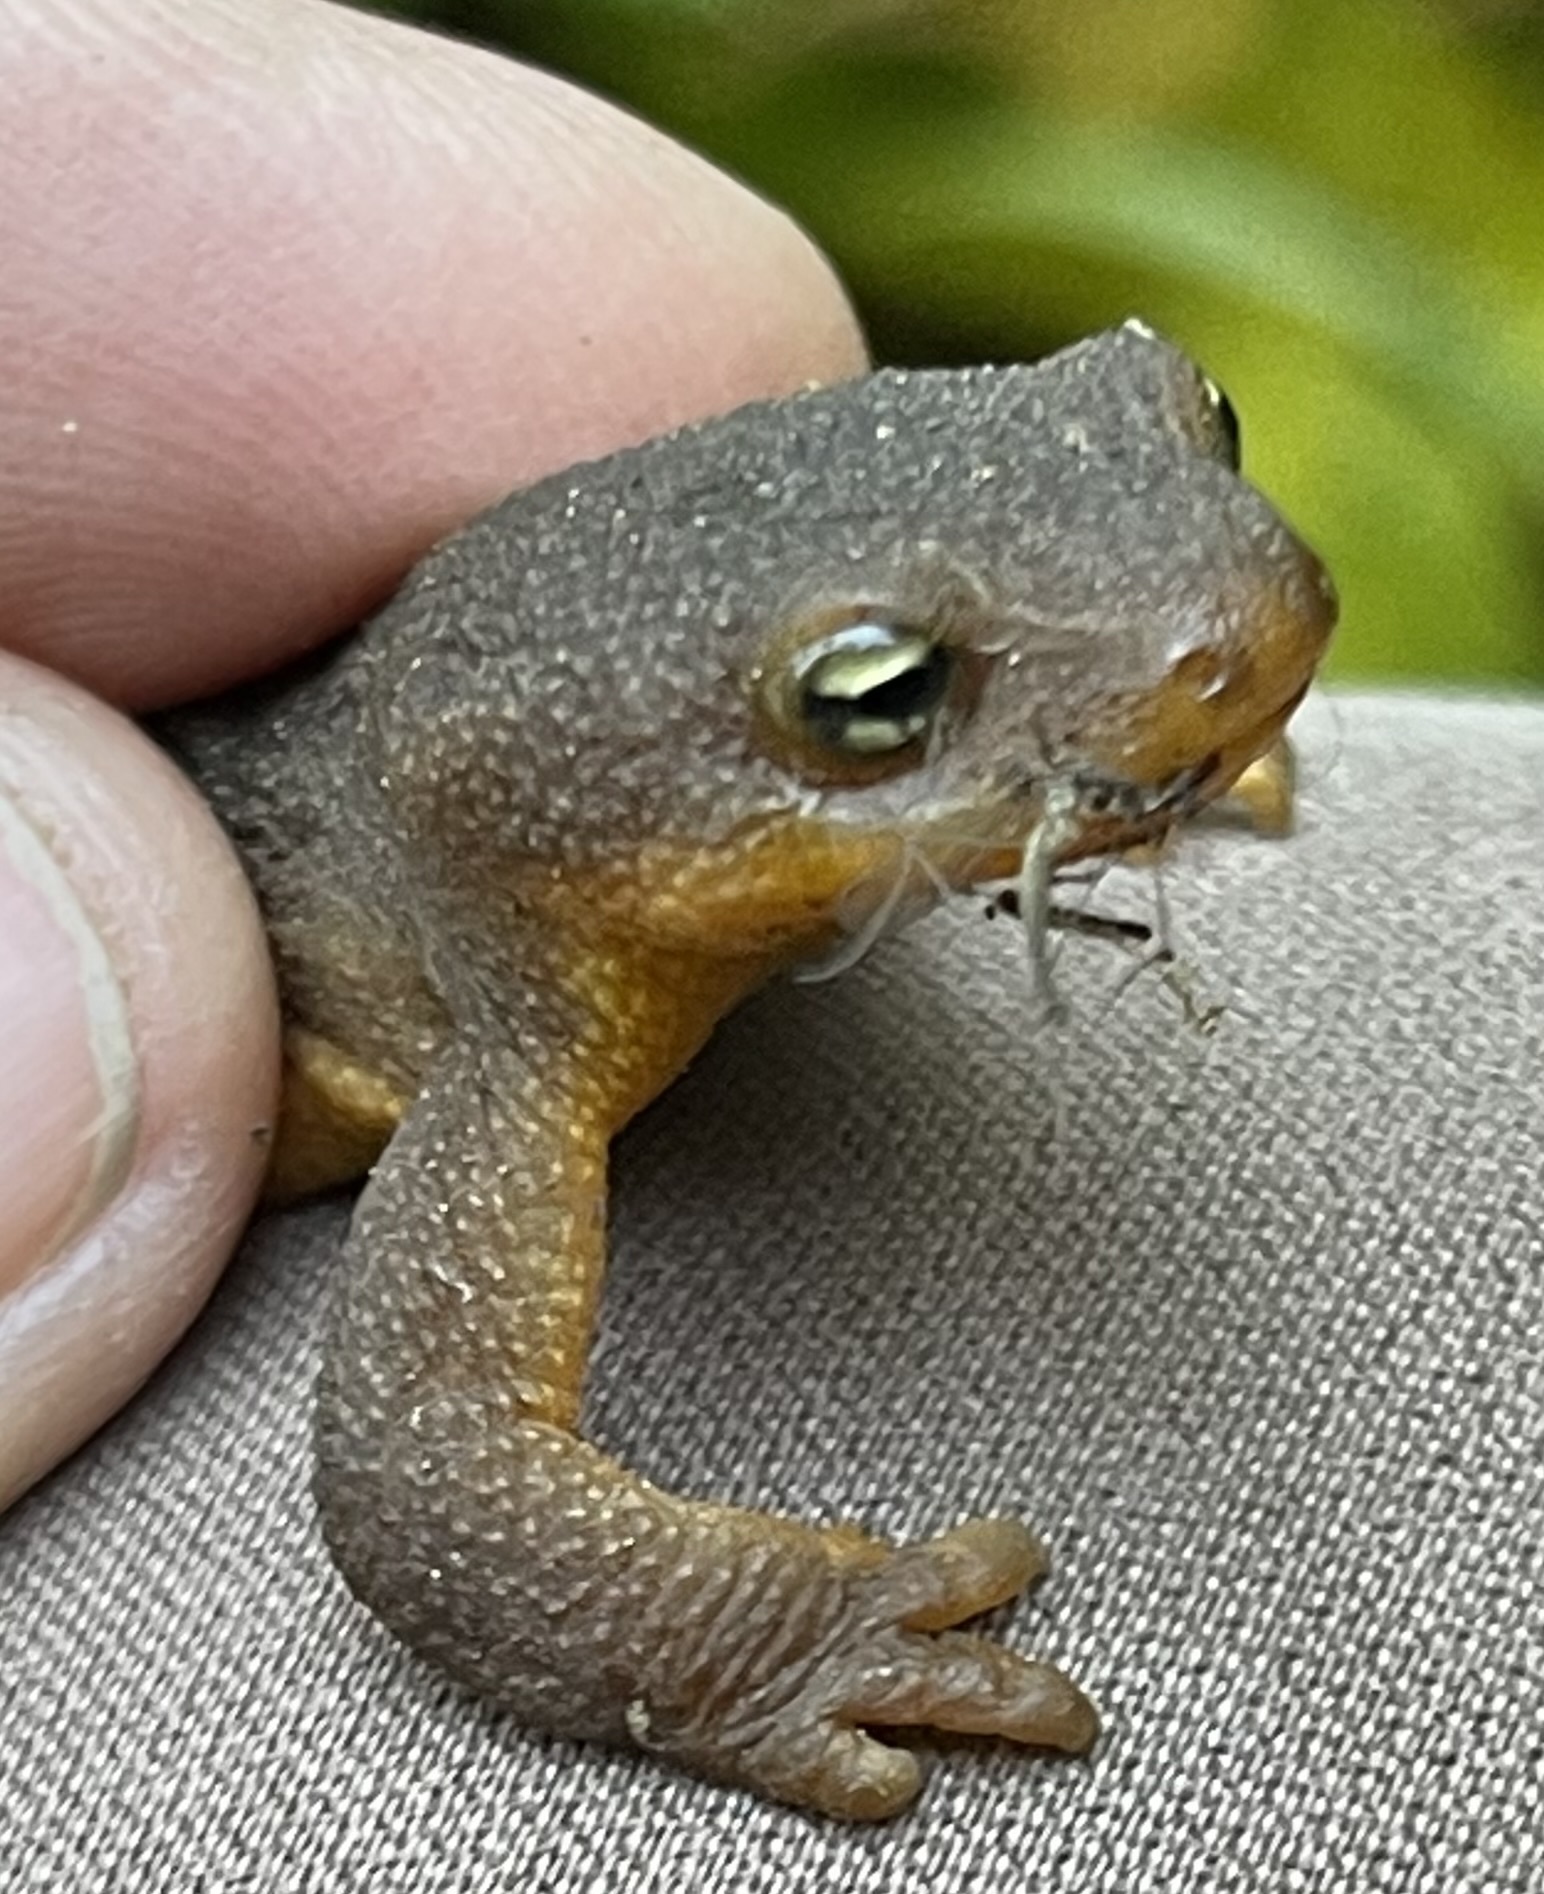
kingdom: Animalia
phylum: Chordata
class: Amphibia
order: Caudata
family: Salamandridae
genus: Taricha
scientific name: Taricha granulosa
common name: Roughskin newt
